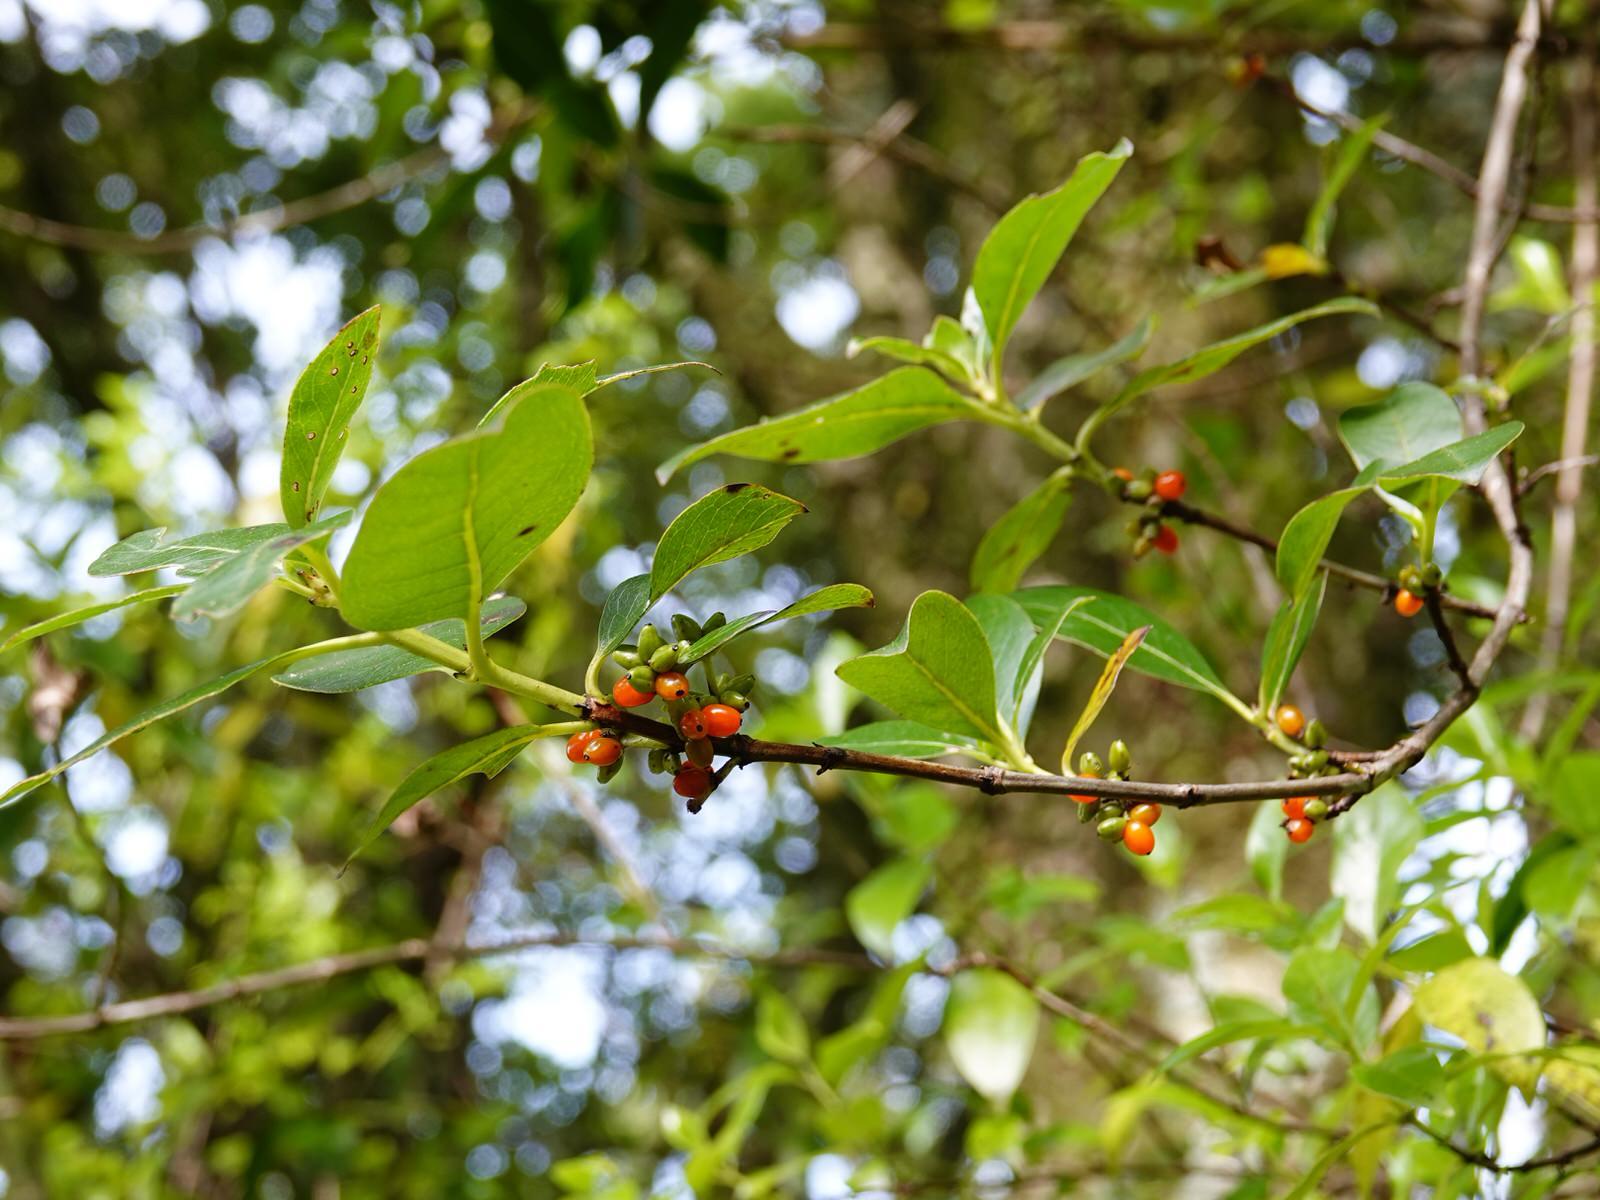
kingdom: Plantae
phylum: Tracheophyta
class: Magnoliopsida
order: Gentianales
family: Rubiaceae
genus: Coprosma
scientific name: Coprosma robusta
